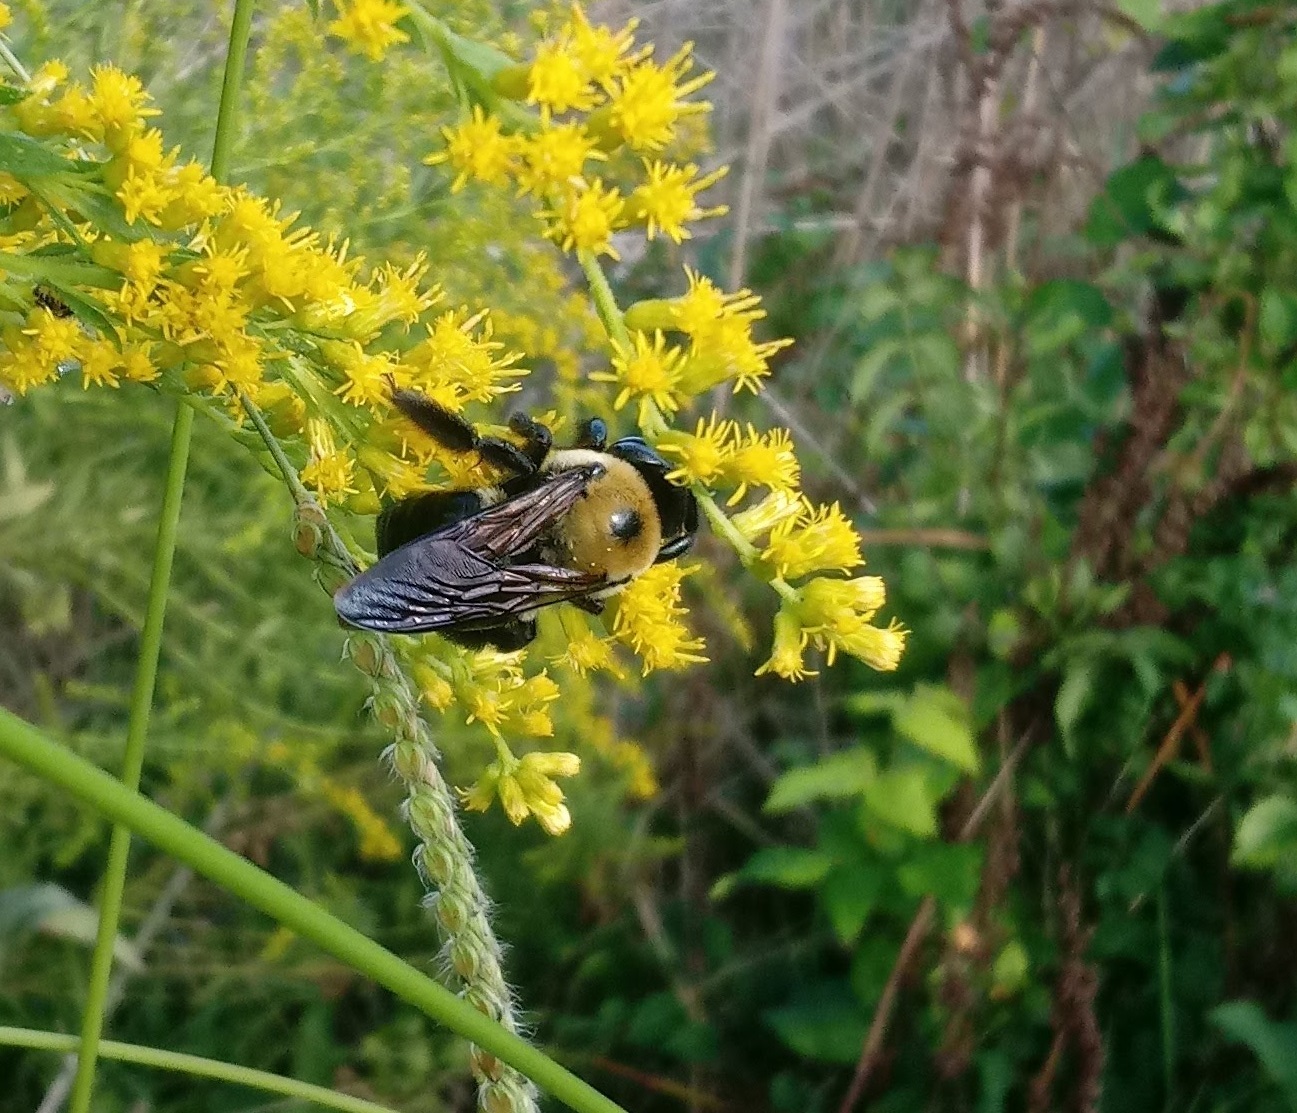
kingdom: Animalia
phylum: Arthropoda
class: Insecta
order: Hymenoptera
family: Apidae
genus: Xylocopa
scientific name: Xylocopa virginica
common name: Carpenter bee
